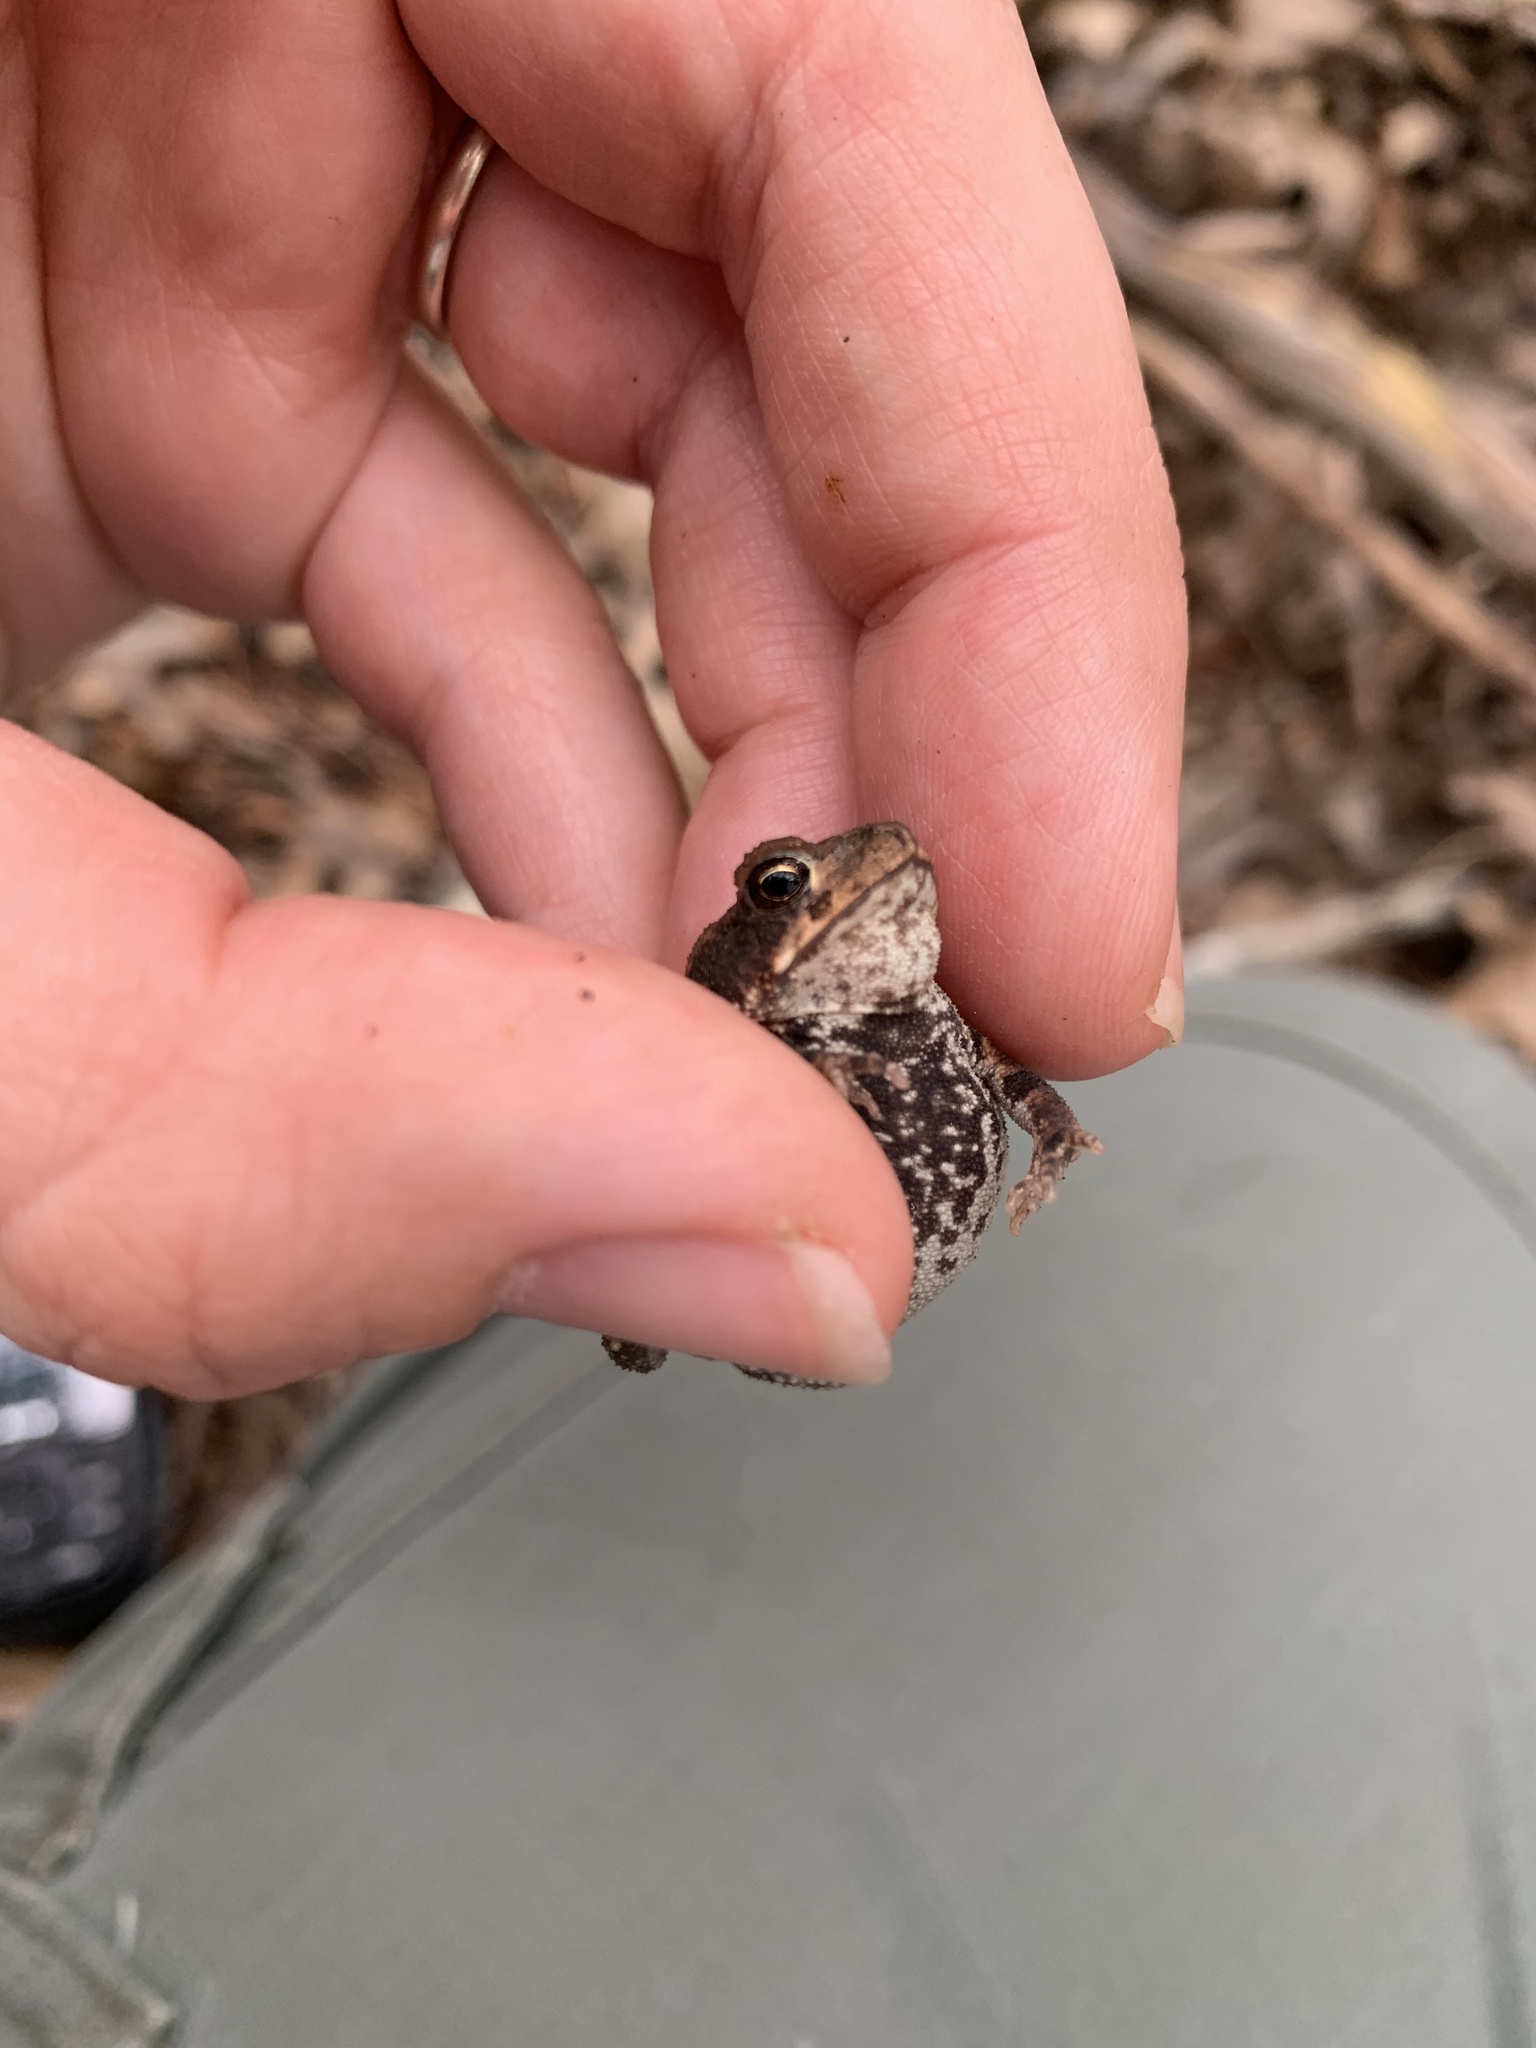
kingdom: Animalia
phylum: Chordata
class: Amphibia
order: Anura
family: Bufonidae
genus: Incilius
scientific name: Incilius nebulifer
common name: Gulf coast toad
